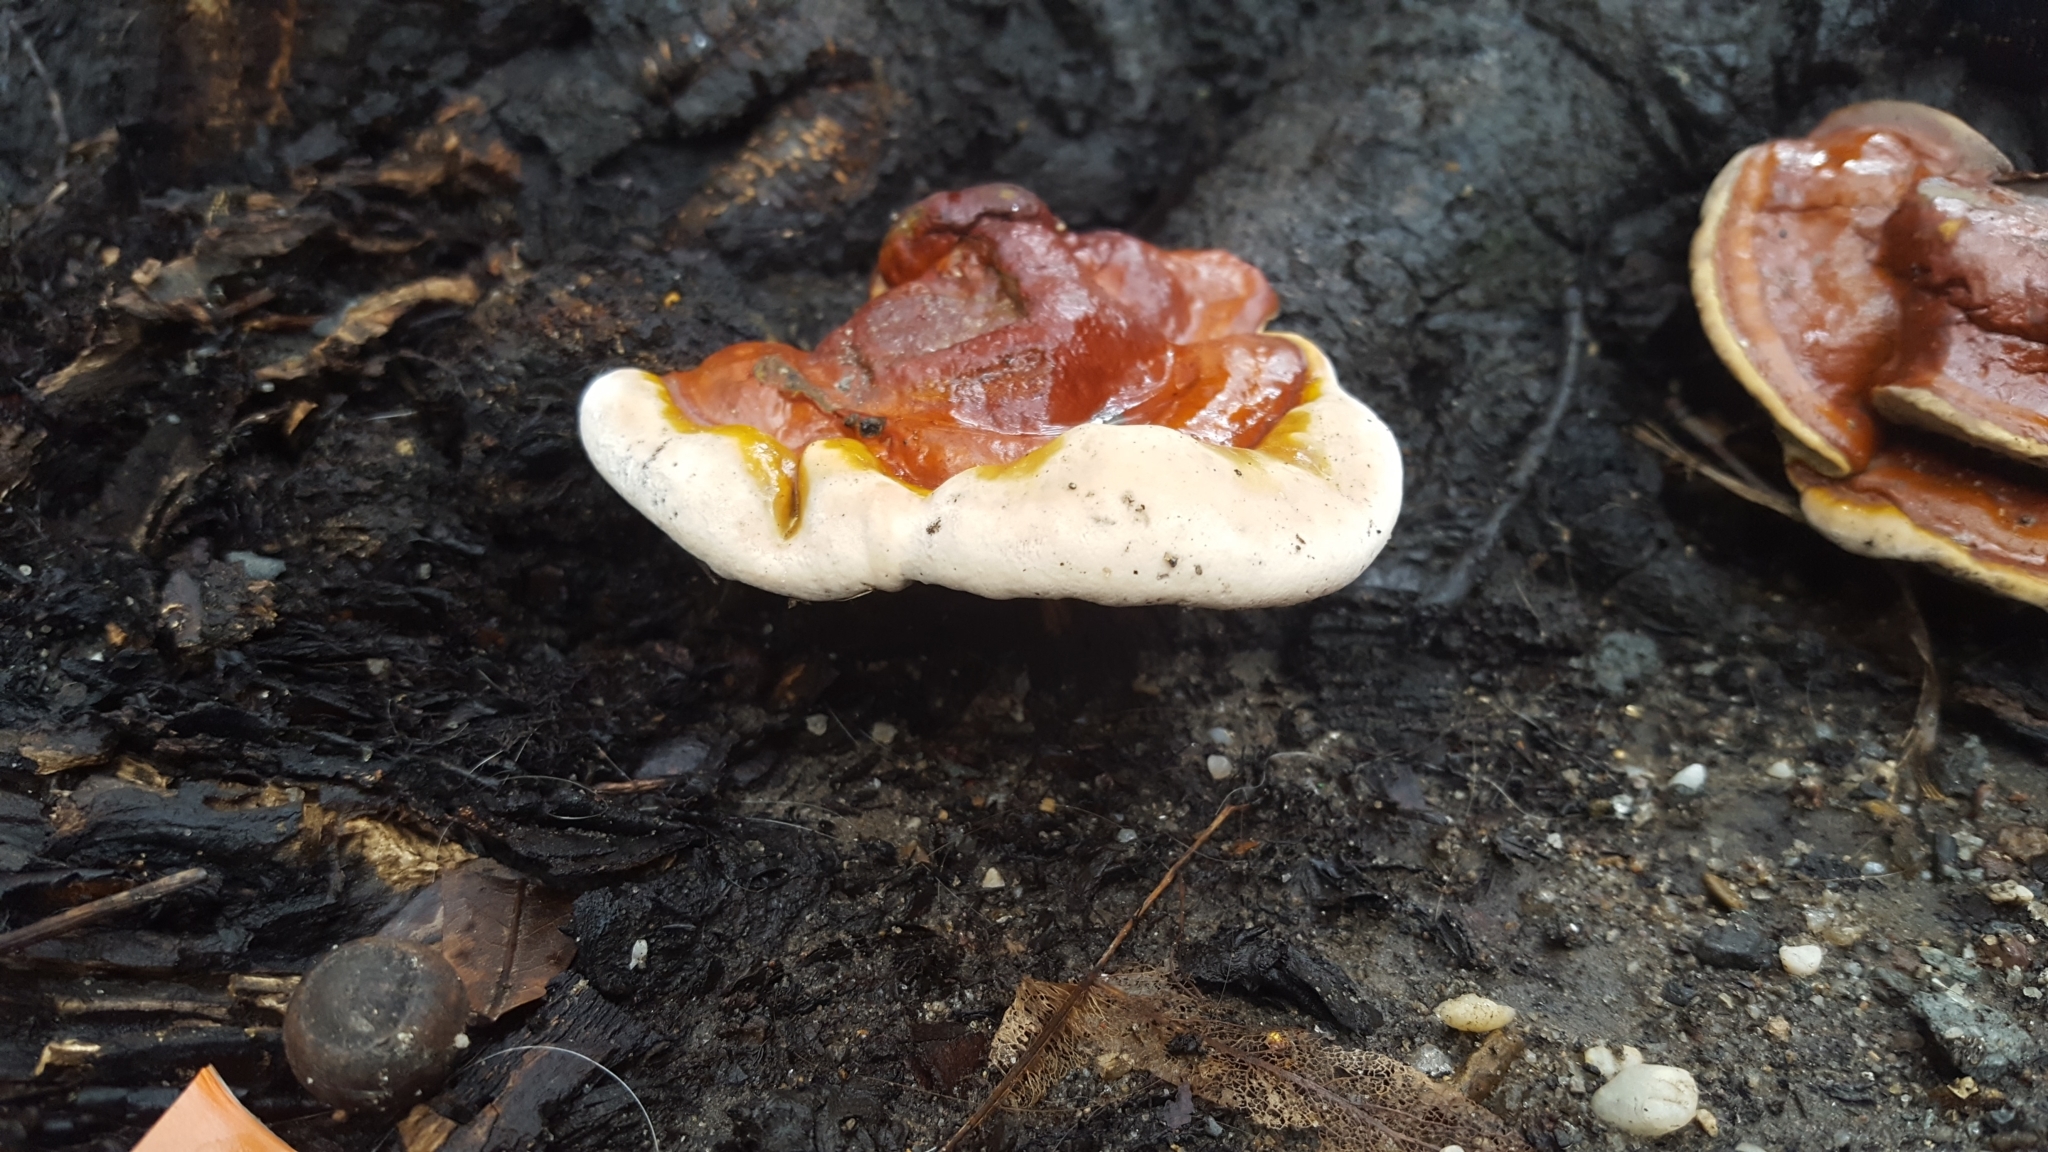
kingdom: Fungi
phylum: Basidiomycota
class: Agaricomycetes
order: Polyporales
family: Polyporaceae
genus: Ganoderma
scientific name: Ganoderma resinaceum
